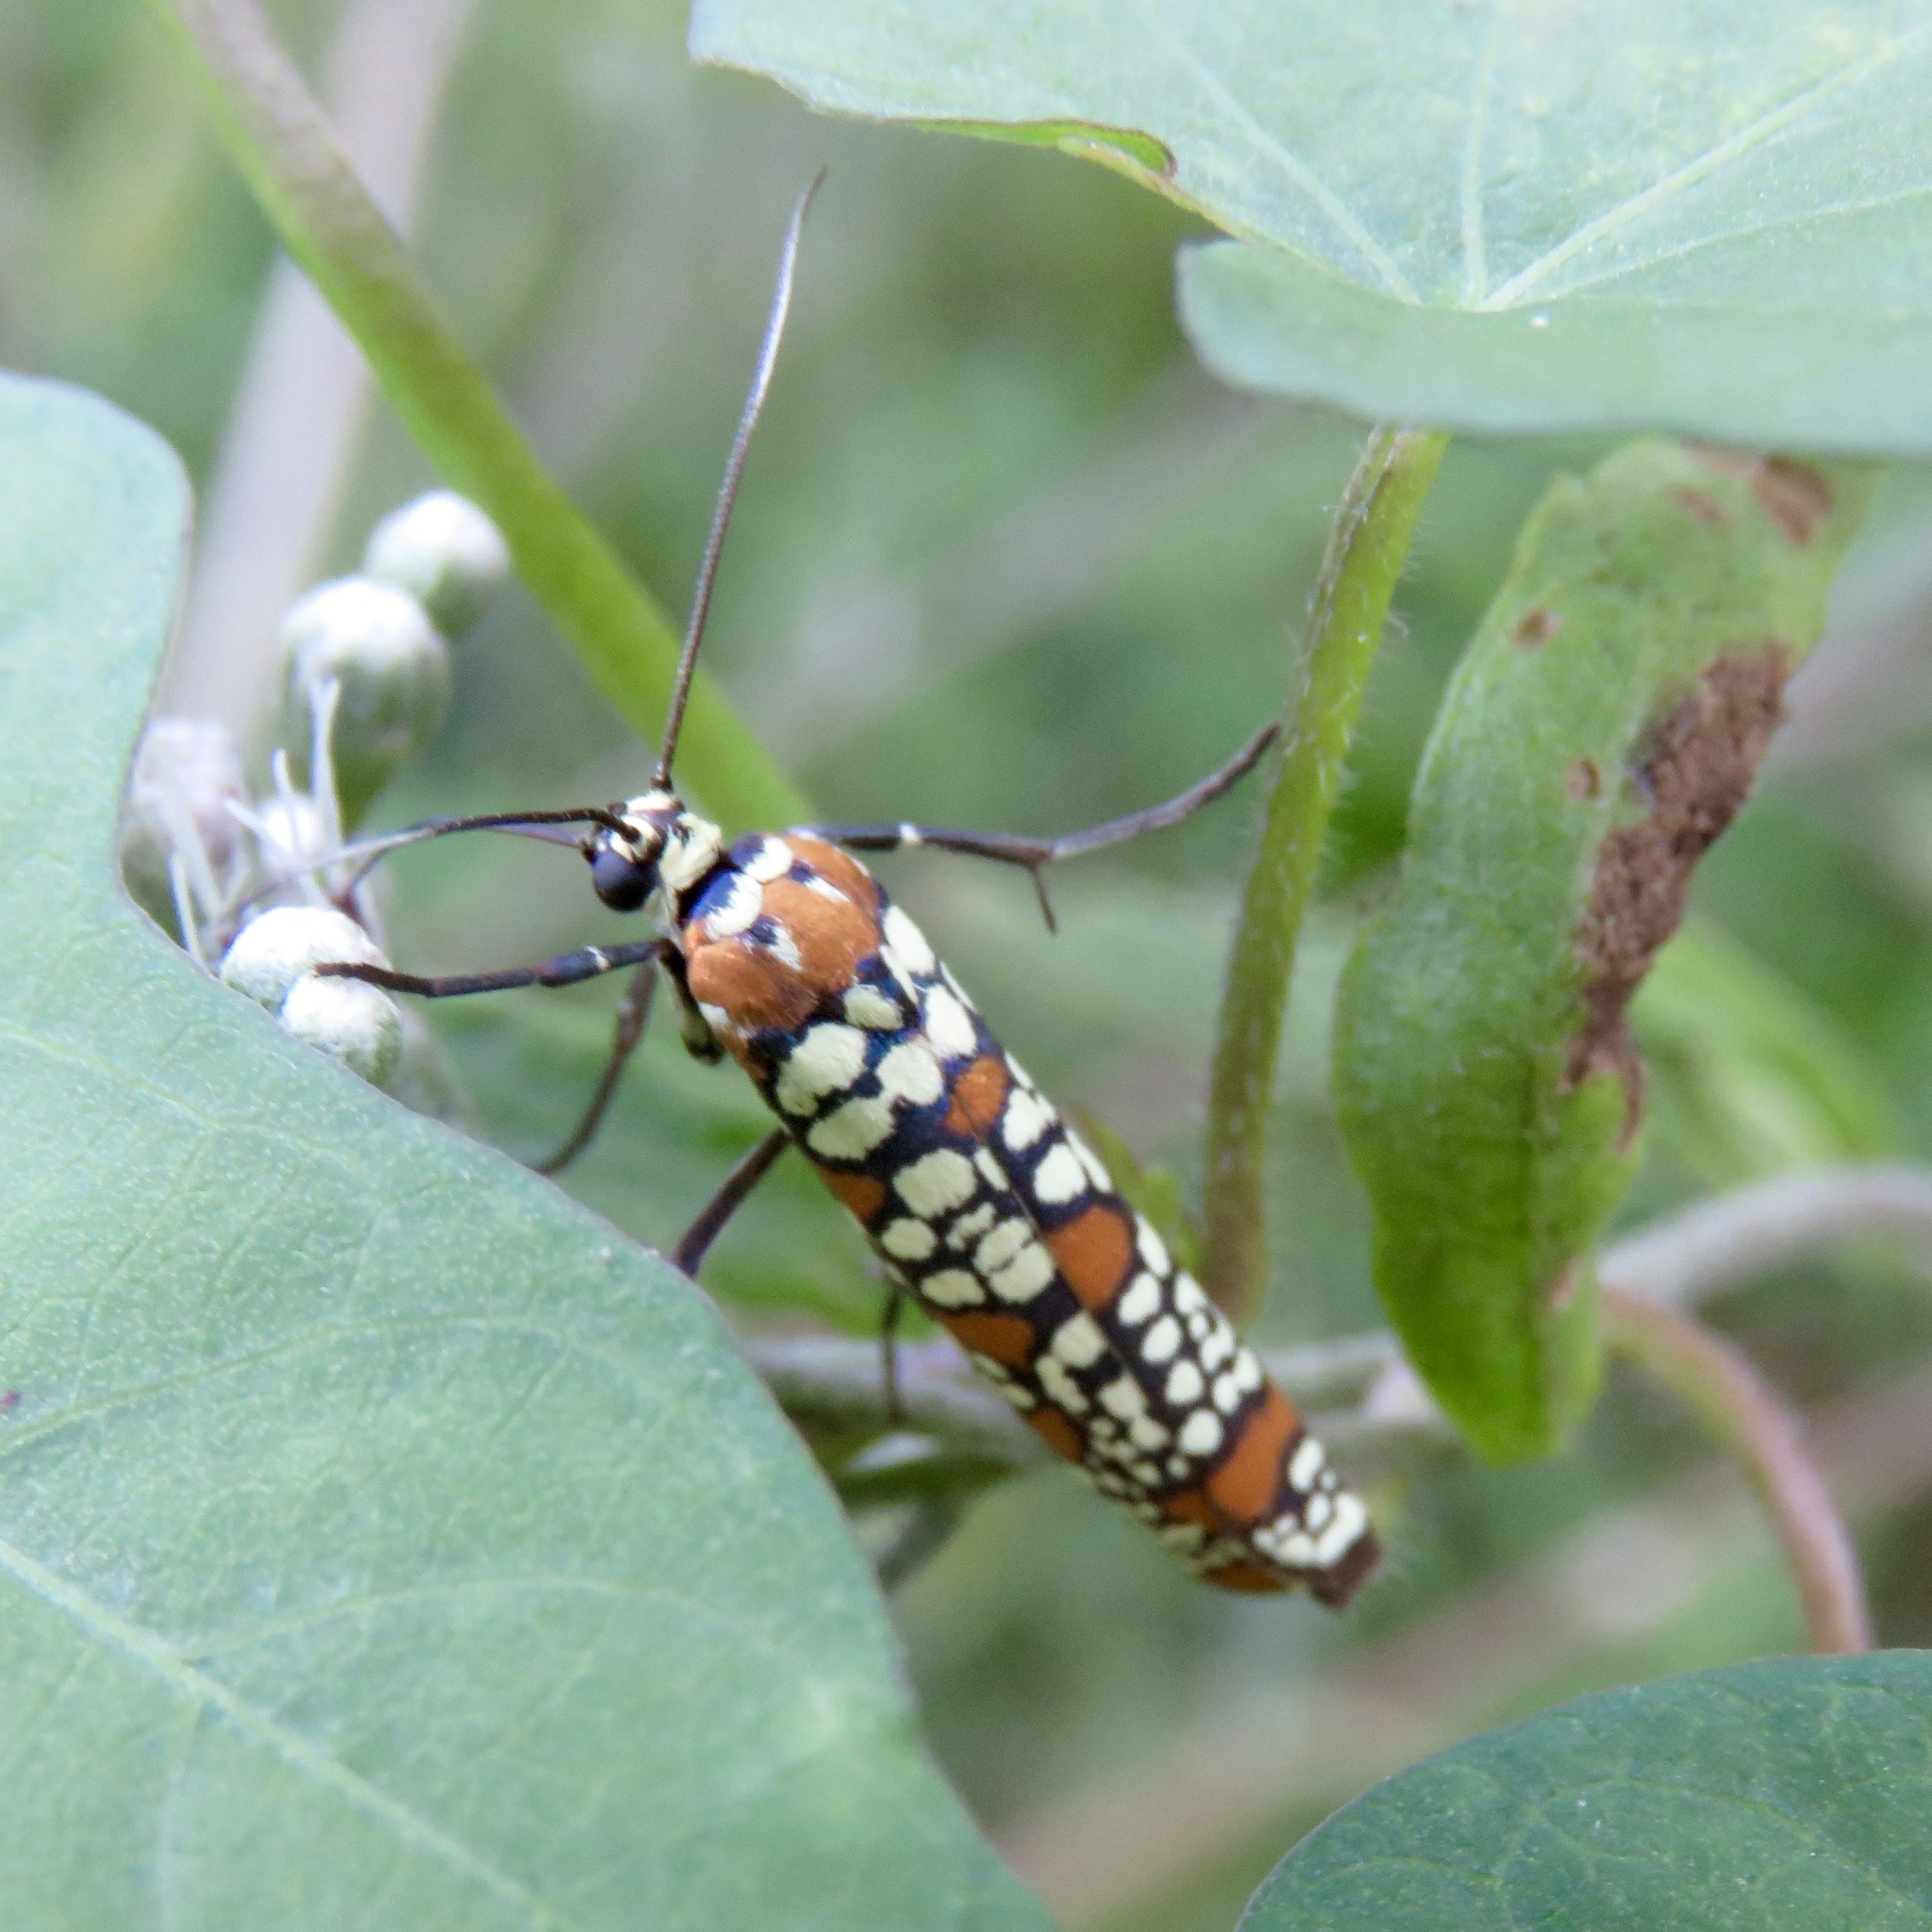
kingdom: Animalia
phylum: Arthropoda
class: Insecta
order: Lepidoptera
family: Attevidae
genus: Atteva
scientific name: Atteva punctella
